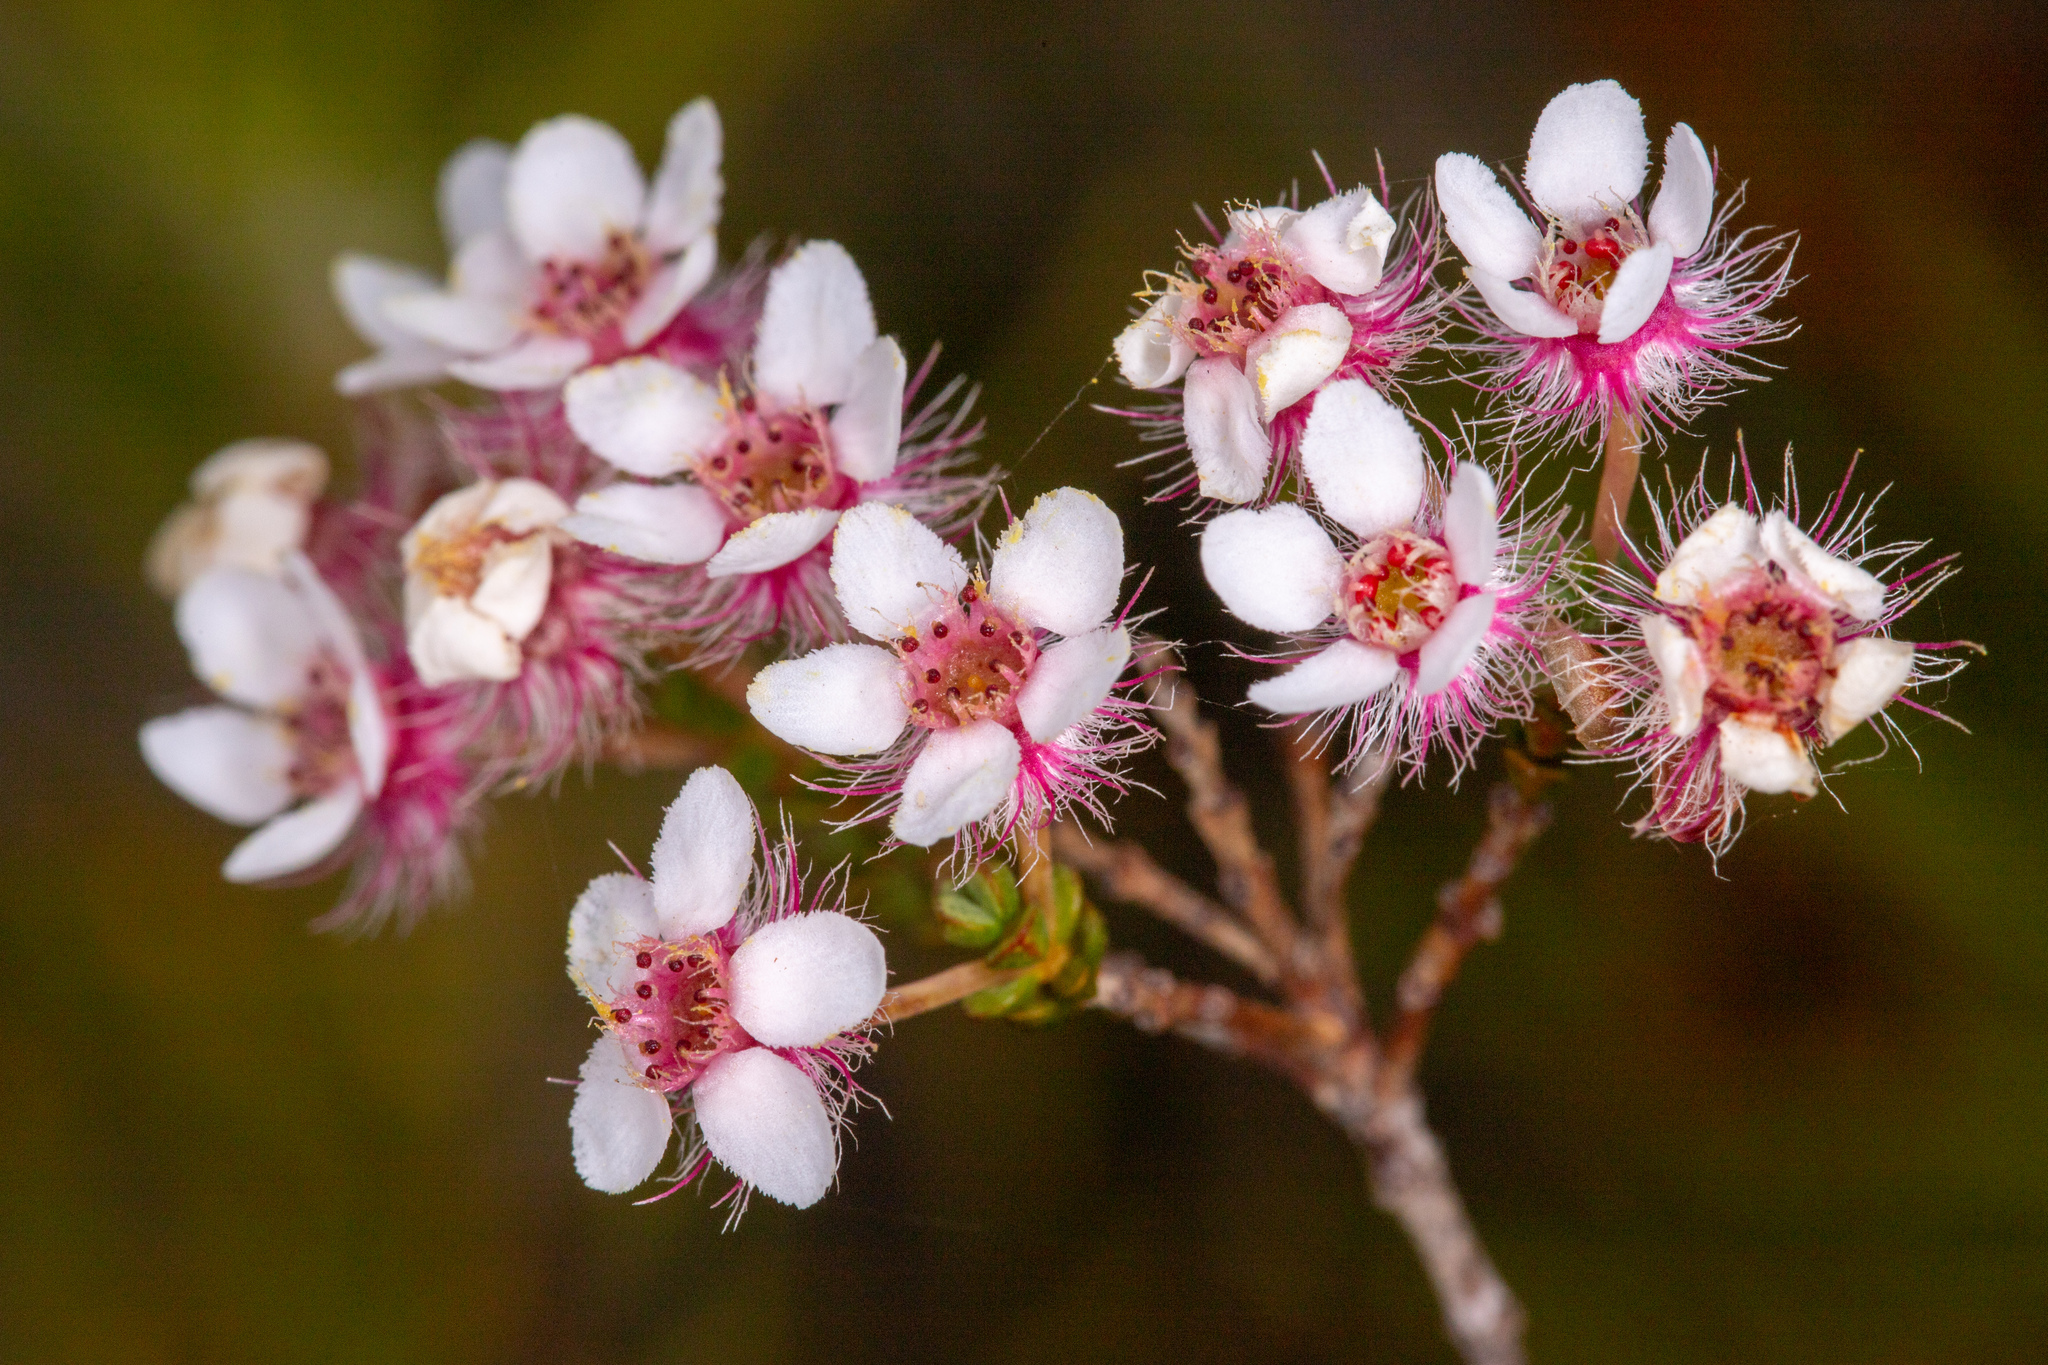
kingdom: Plantae
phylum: Tracheophyta
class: Magnoliopsida
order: Myrtales
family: Myrtaceae
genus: Verticordia
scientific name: Verticordia habrantha
